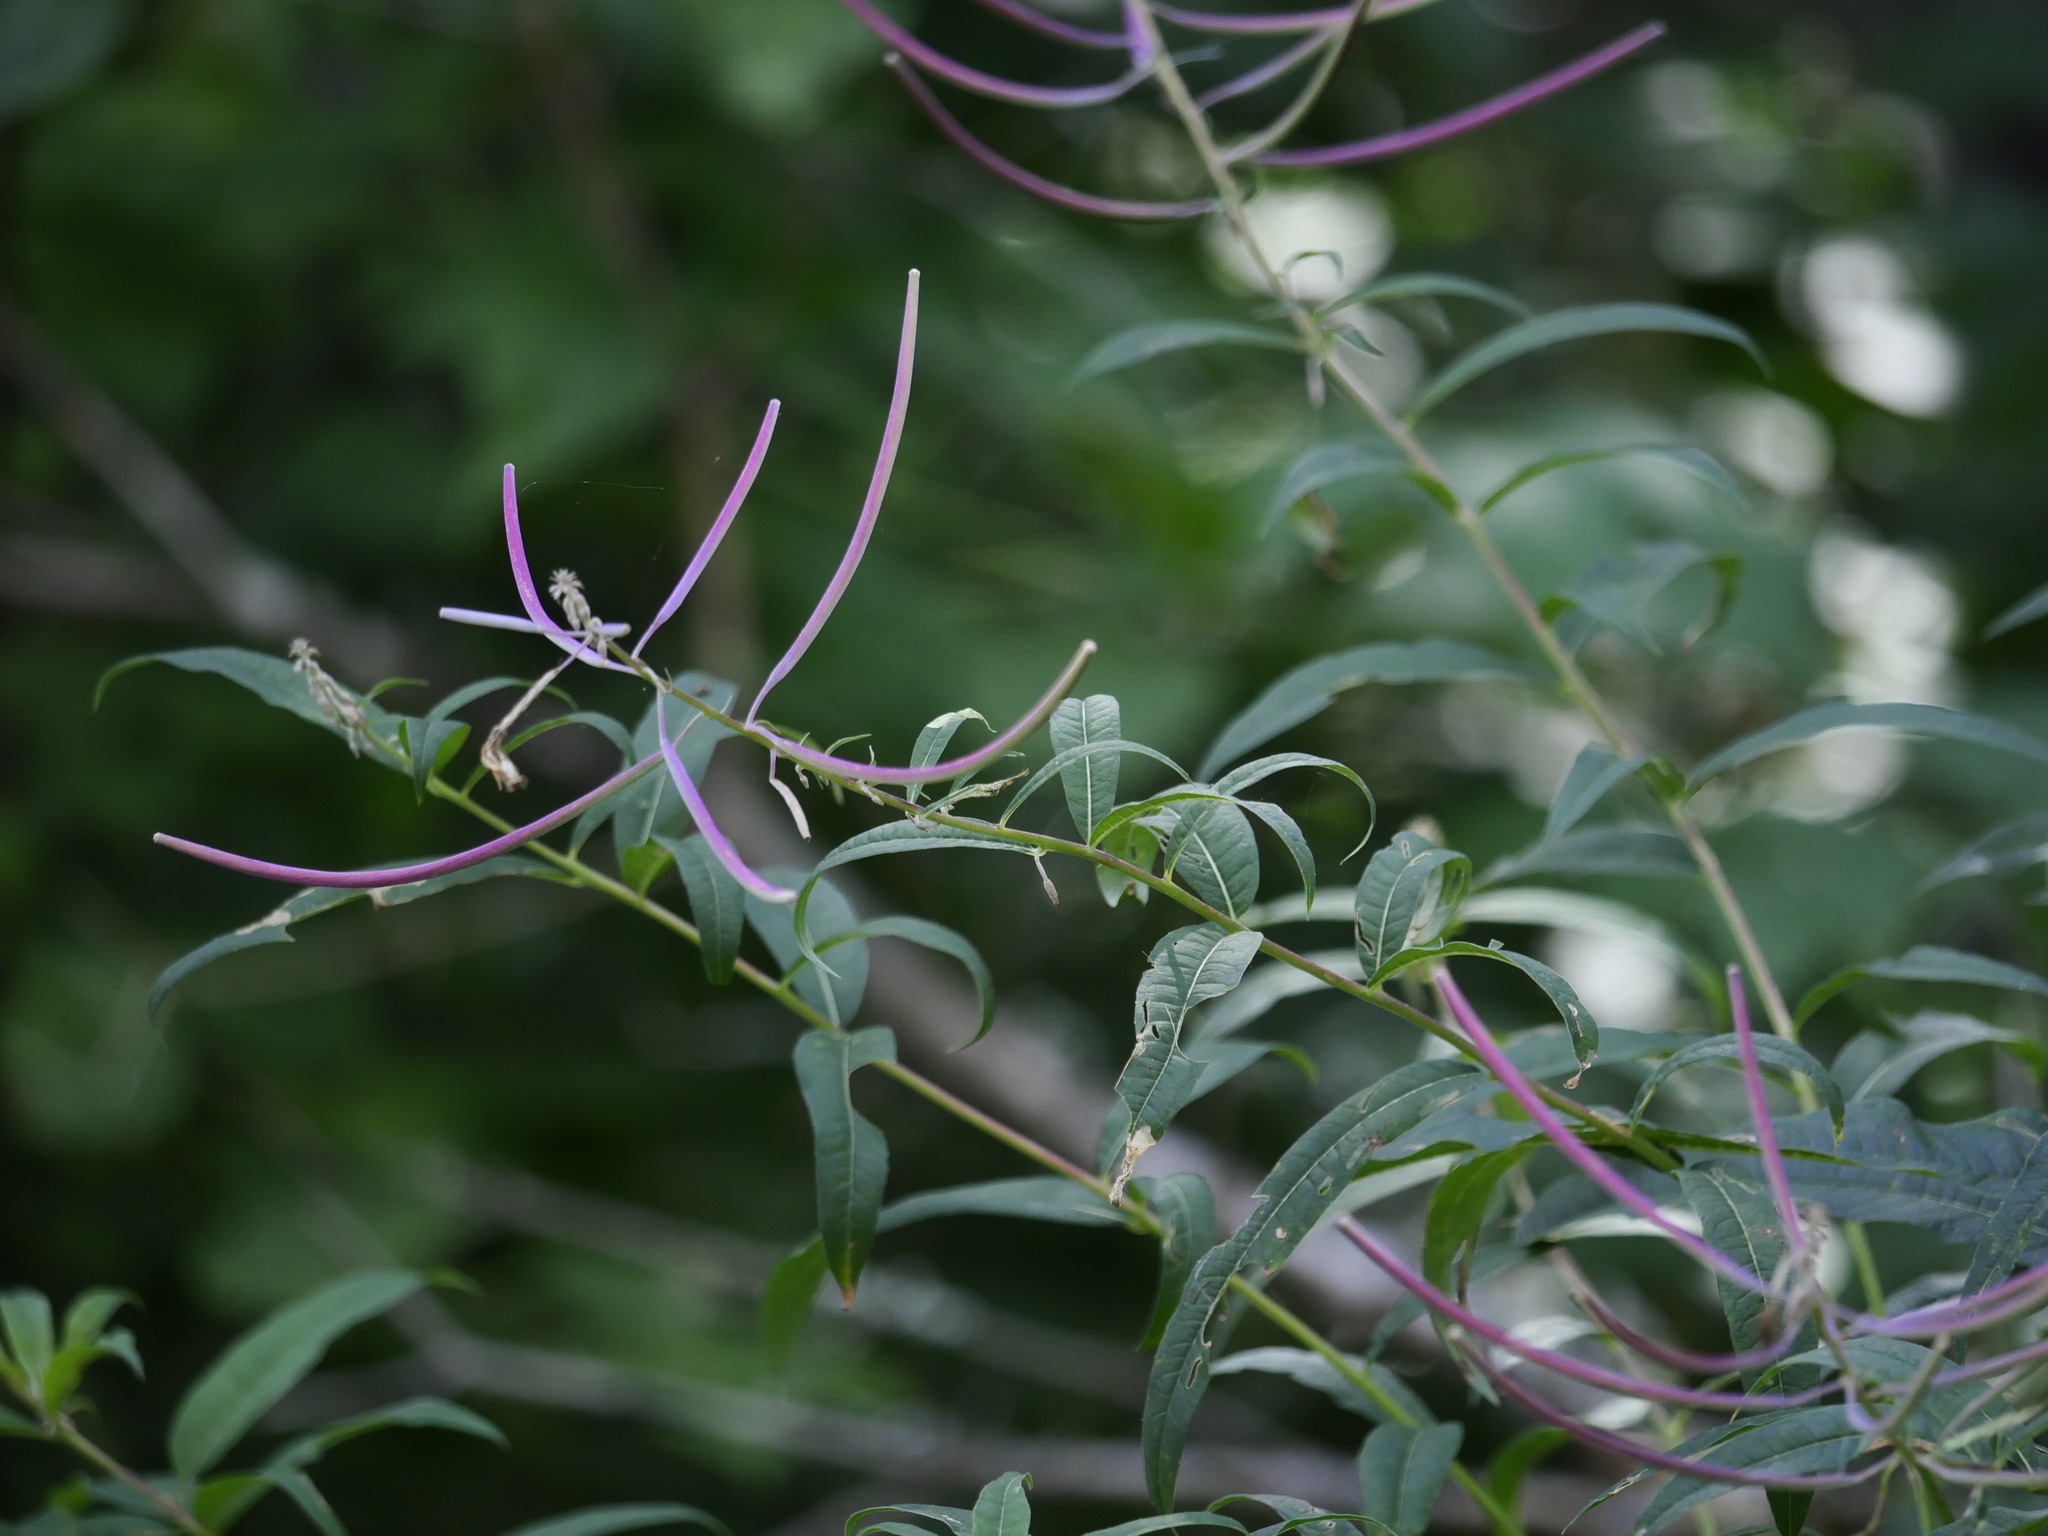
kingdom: Plantae
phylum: Tracheophyta
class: Magnoliopsida
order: Myrtales
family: Onagraceae
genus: Chamaenerion
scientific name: Chamaenerion angustifolium
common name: Fireweed
